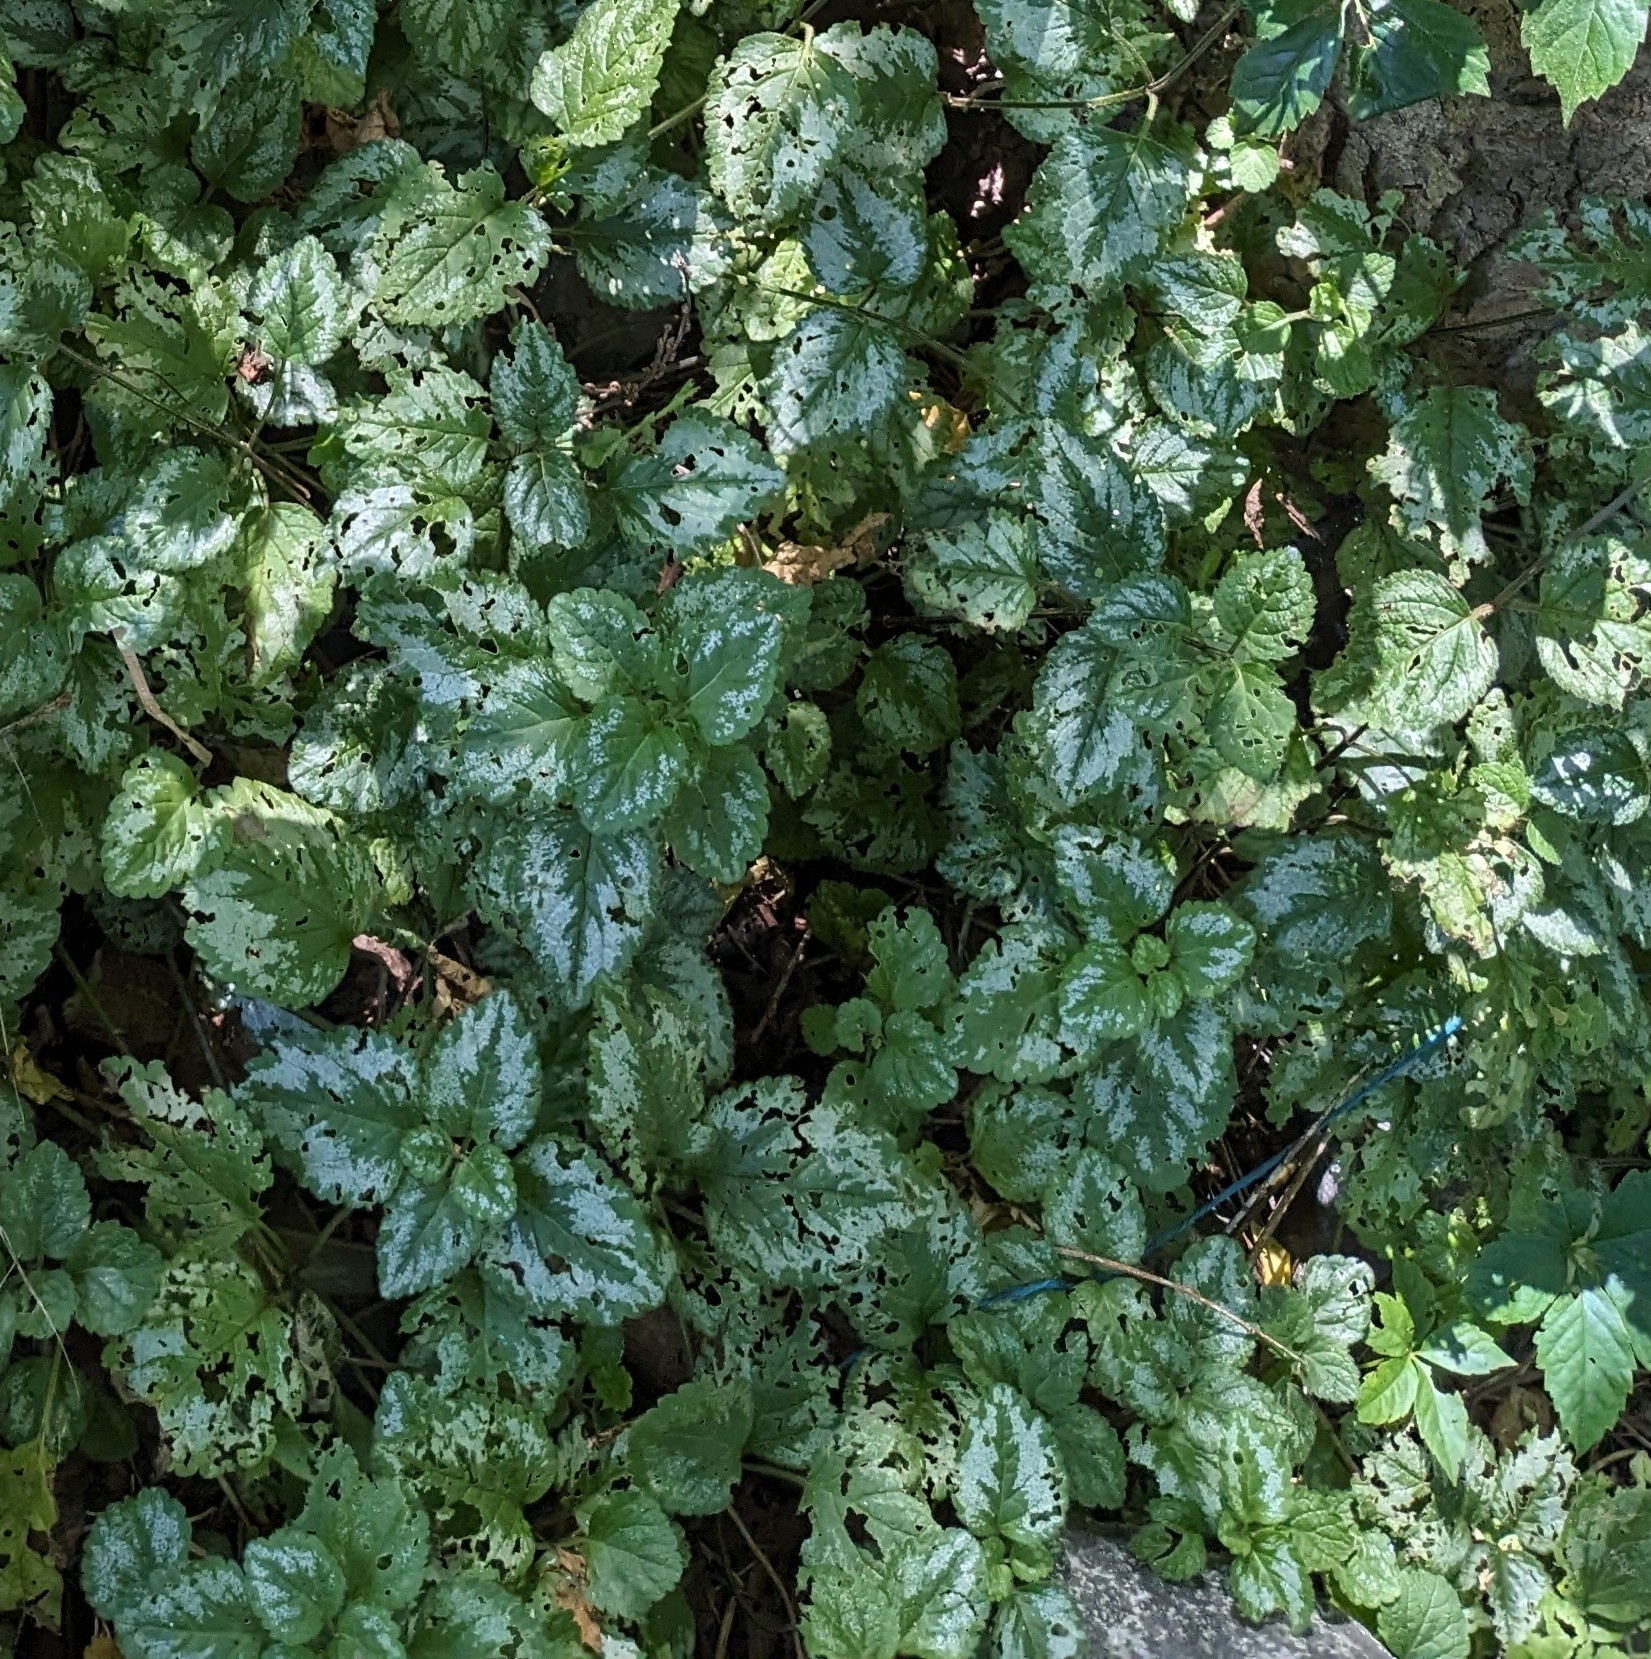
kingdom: Plantae
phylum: Tracheophyta
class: Magnoliopsida
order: Lamiales
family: Lamiaceae
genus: Lamium
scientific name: Lamium galeobdolon
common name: Yellow archangel
